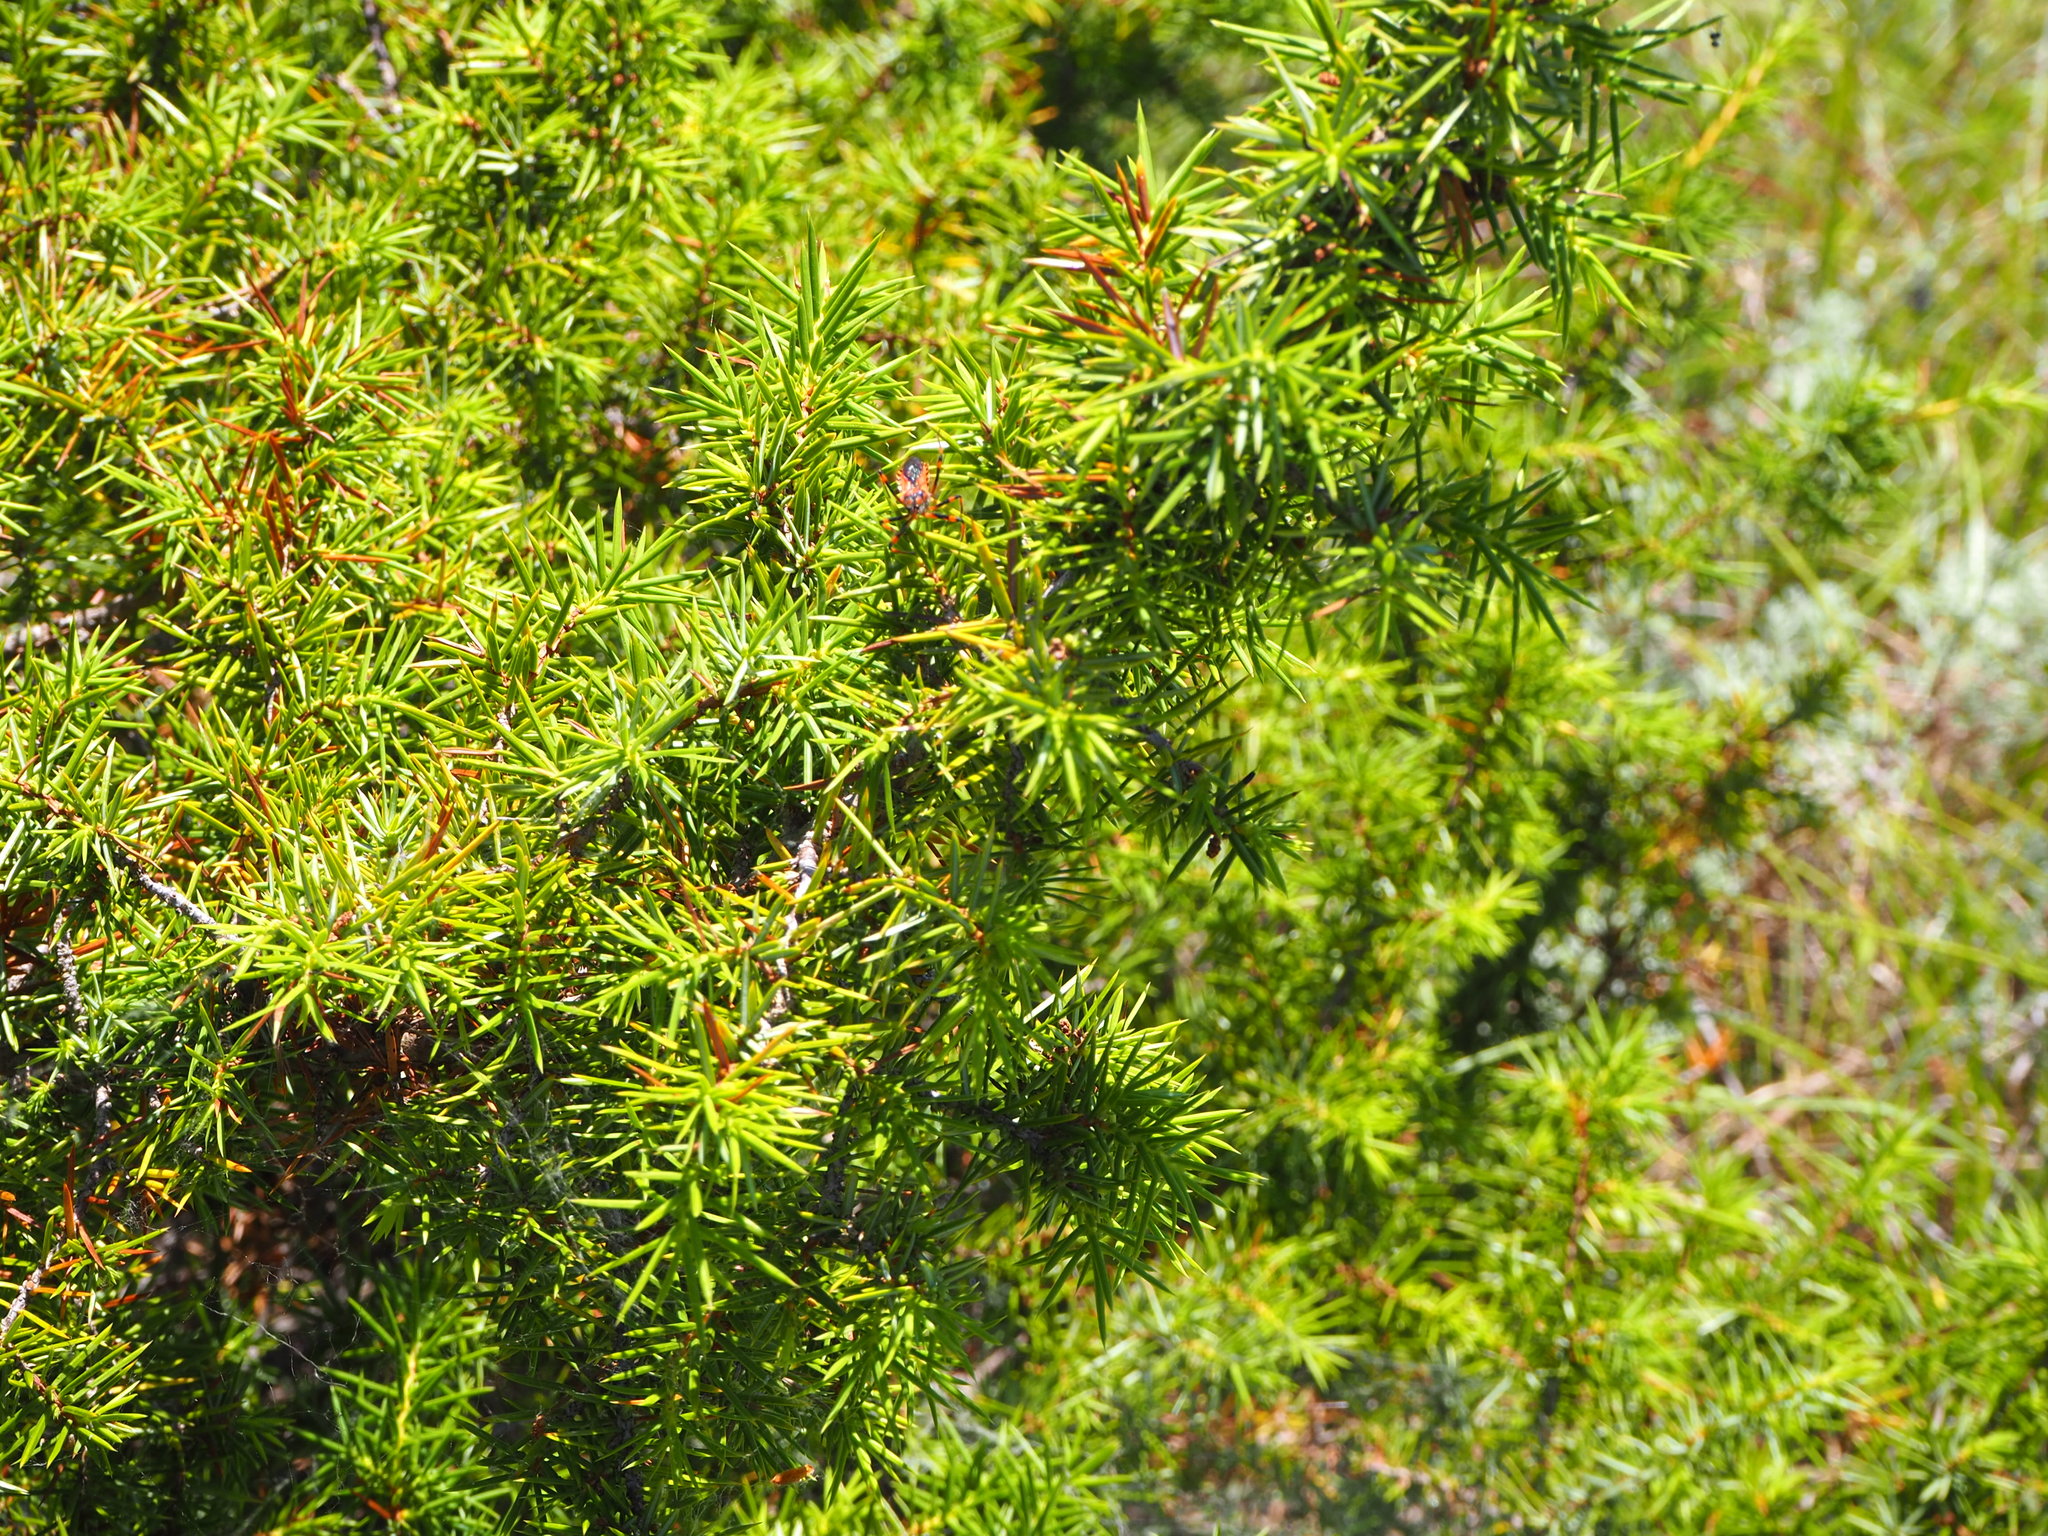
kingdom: Plantae
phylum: Tracheophyta
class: Pinopsida
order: Pinales
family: Cupressaceae
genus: Juniperus
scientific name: Juniperus communis
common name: Common juniper
